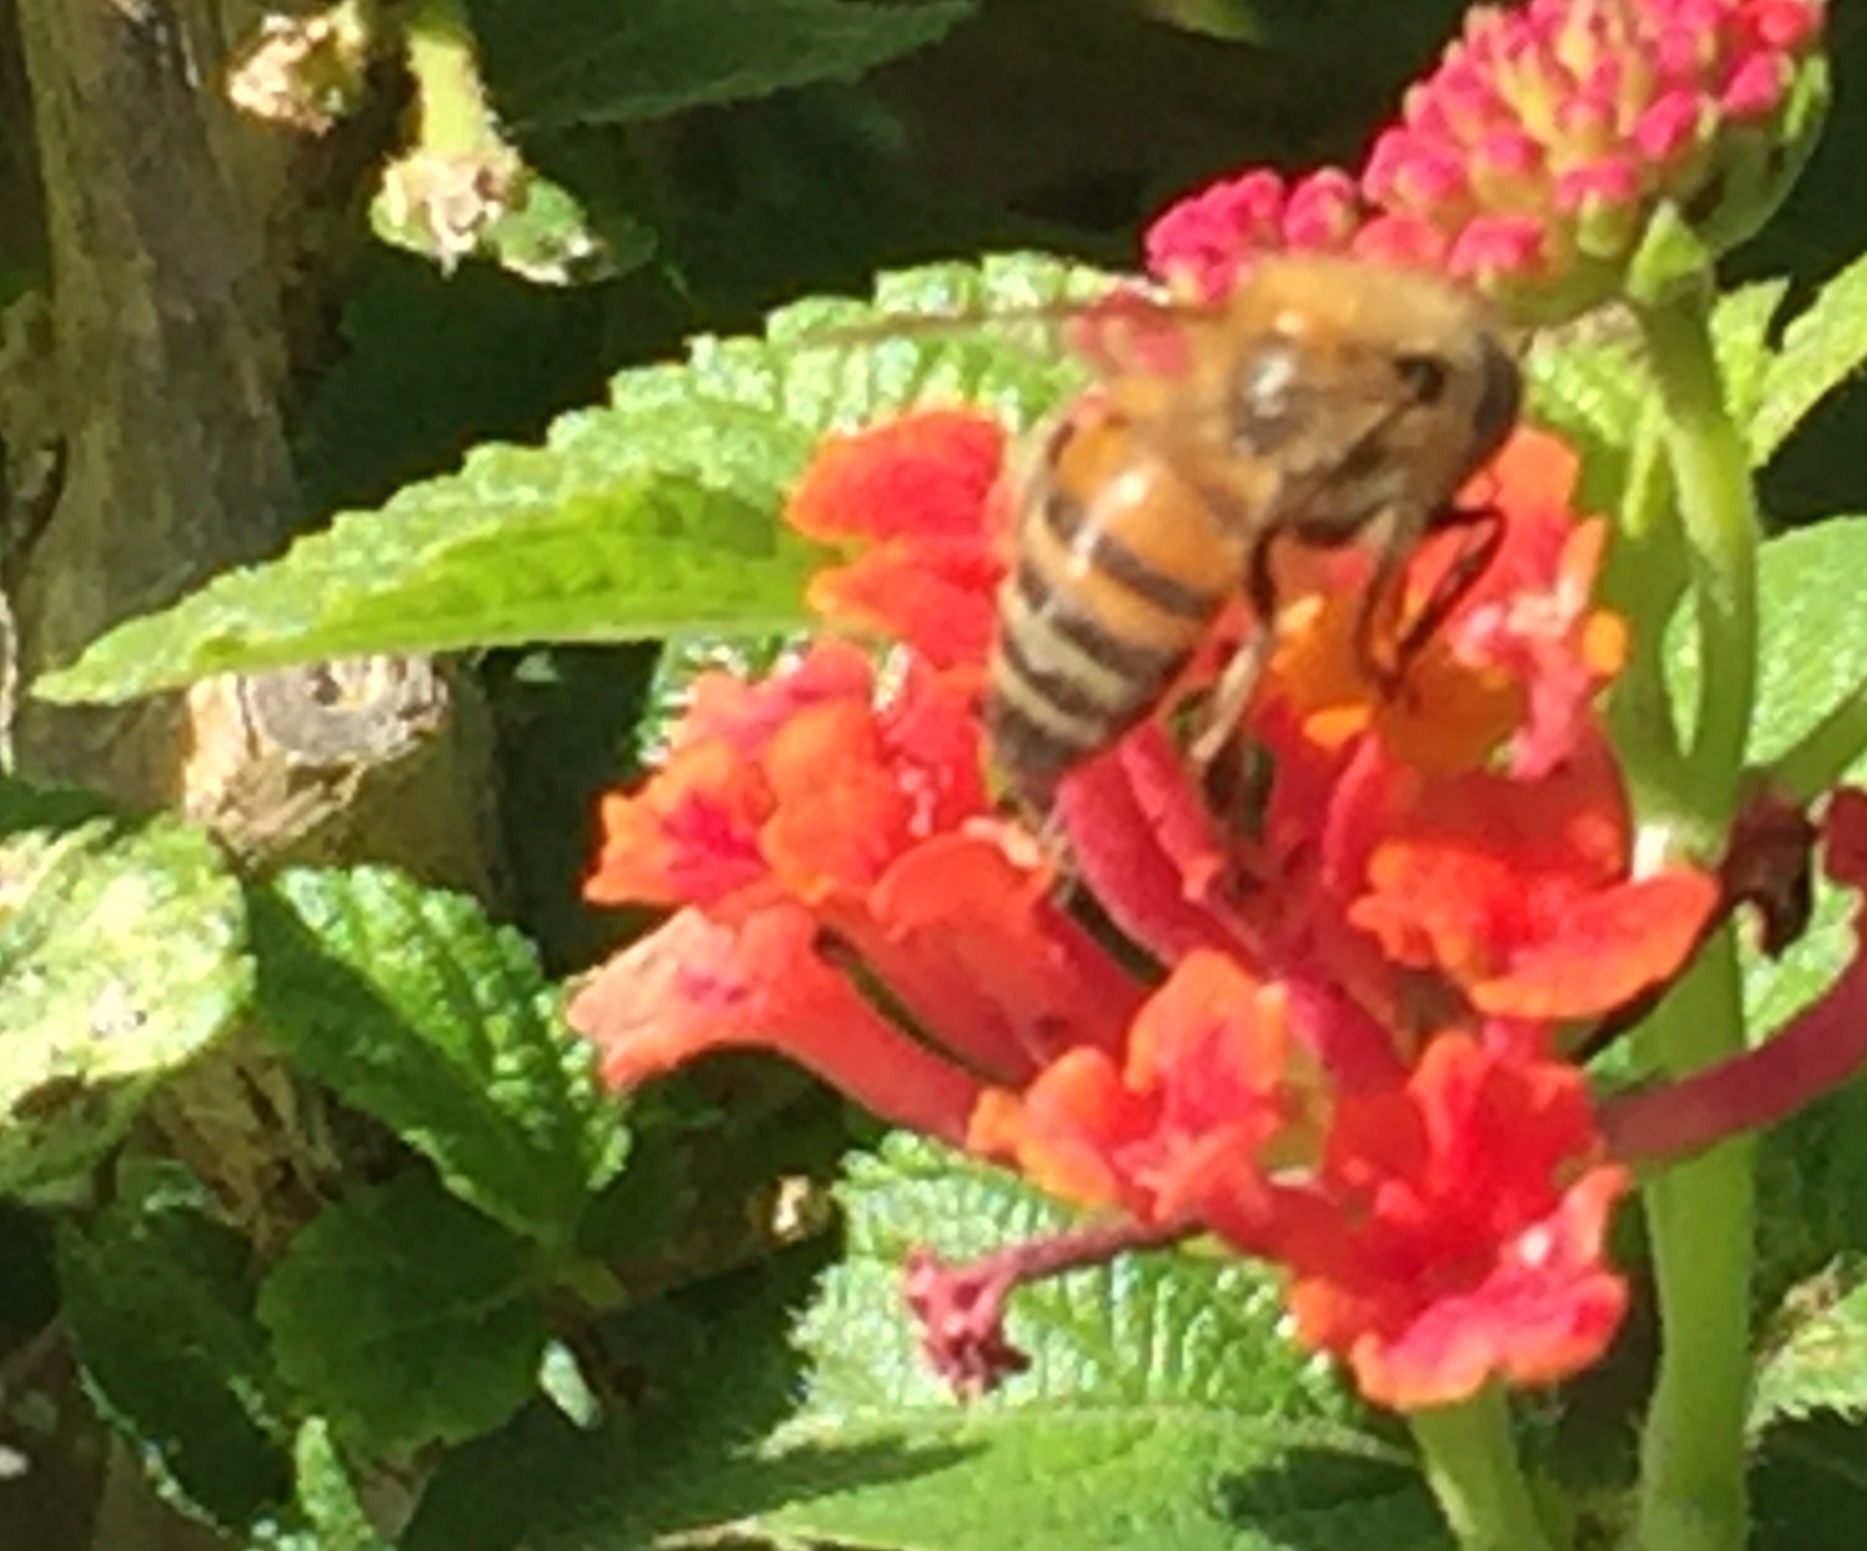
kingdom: Animalia
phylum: Arthropoda
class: Insecta
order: Hymenoptera
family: Apidae
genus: Apis
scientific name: Apis mellifera
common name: Honey bee
